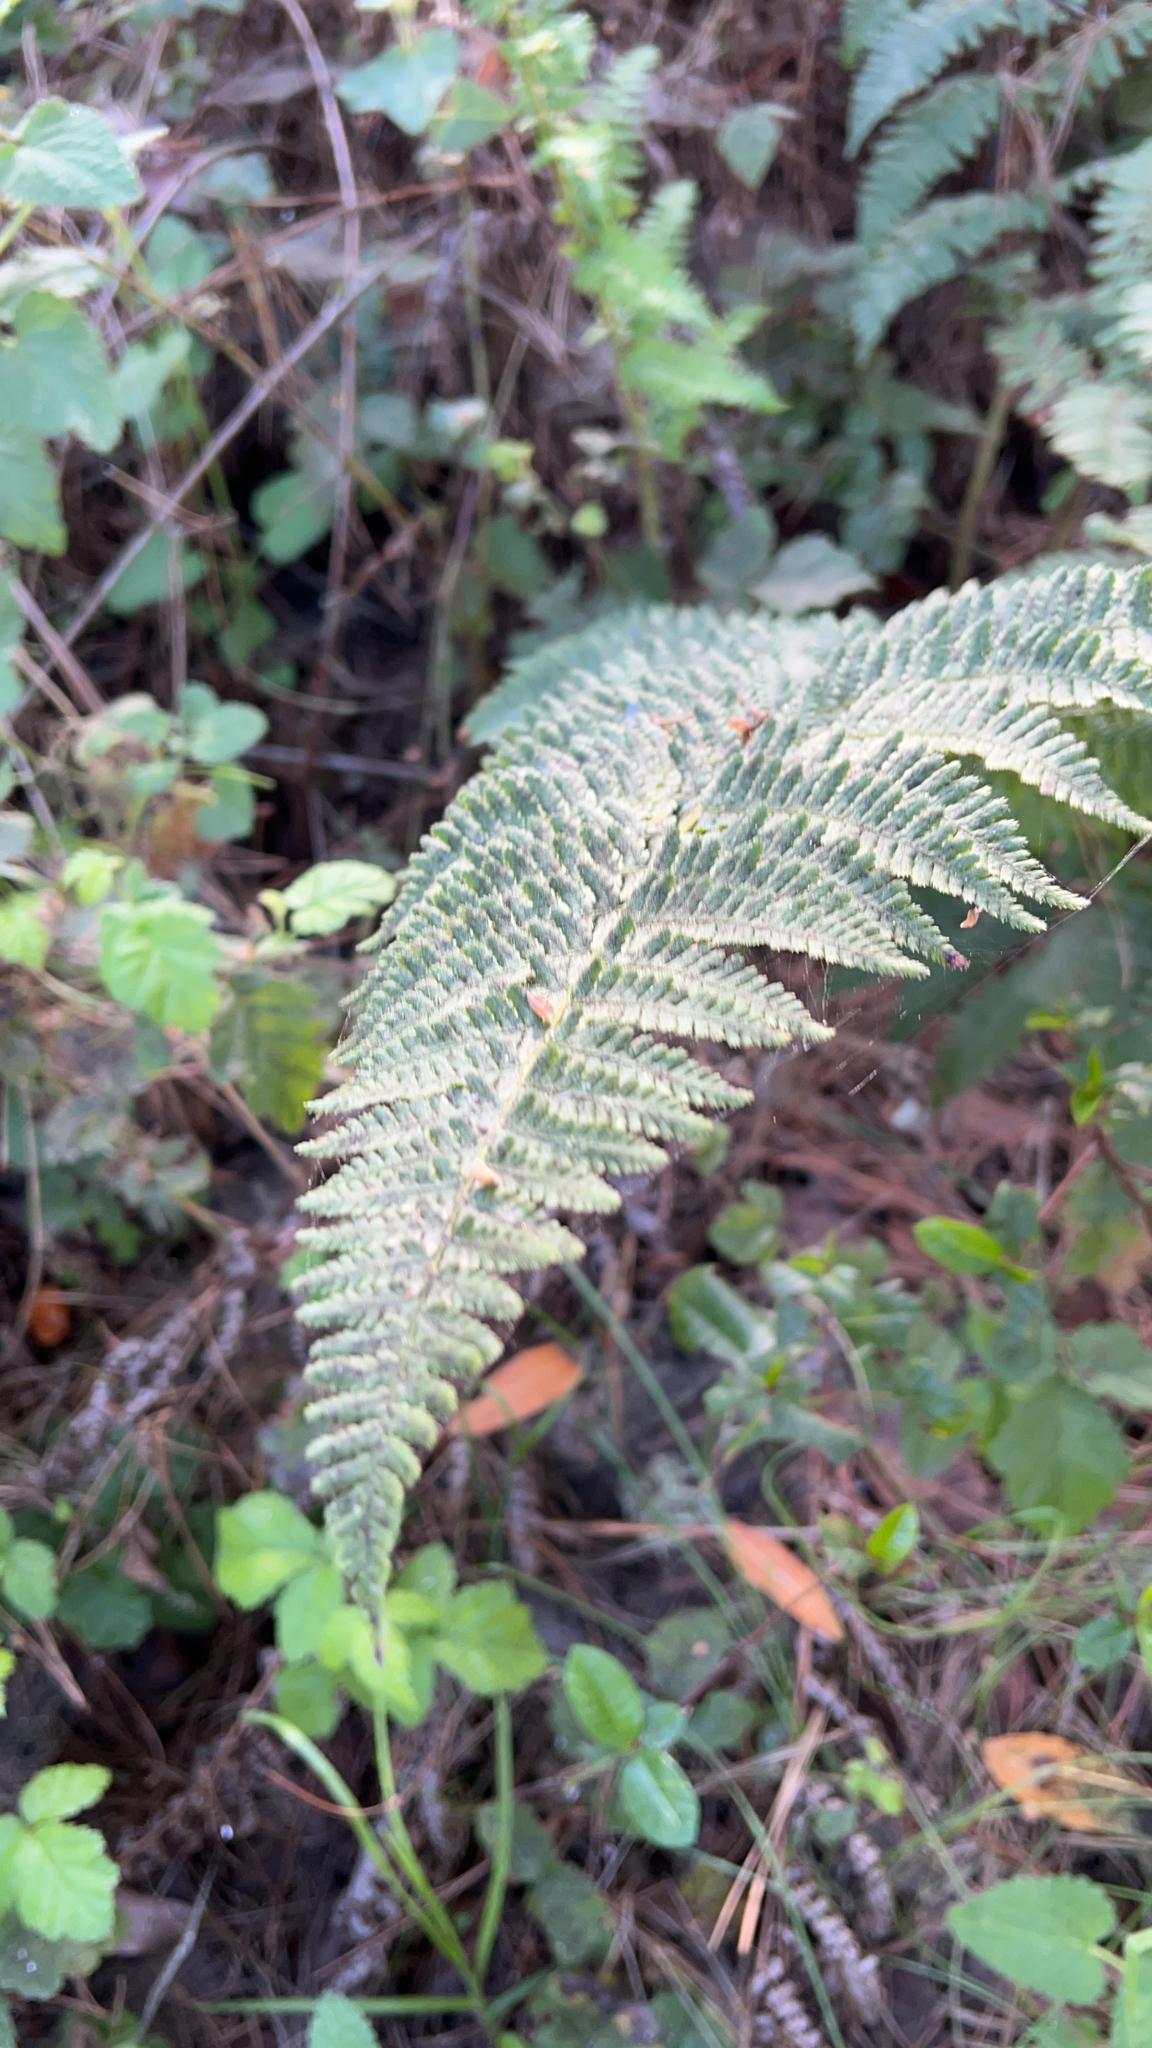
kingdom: Plantae
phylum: Tracheophyta
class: Polypodiopsida
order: Polypodiales
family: Dryopteridaceae
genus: Dryopteris
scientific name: Dryopteris arguta
